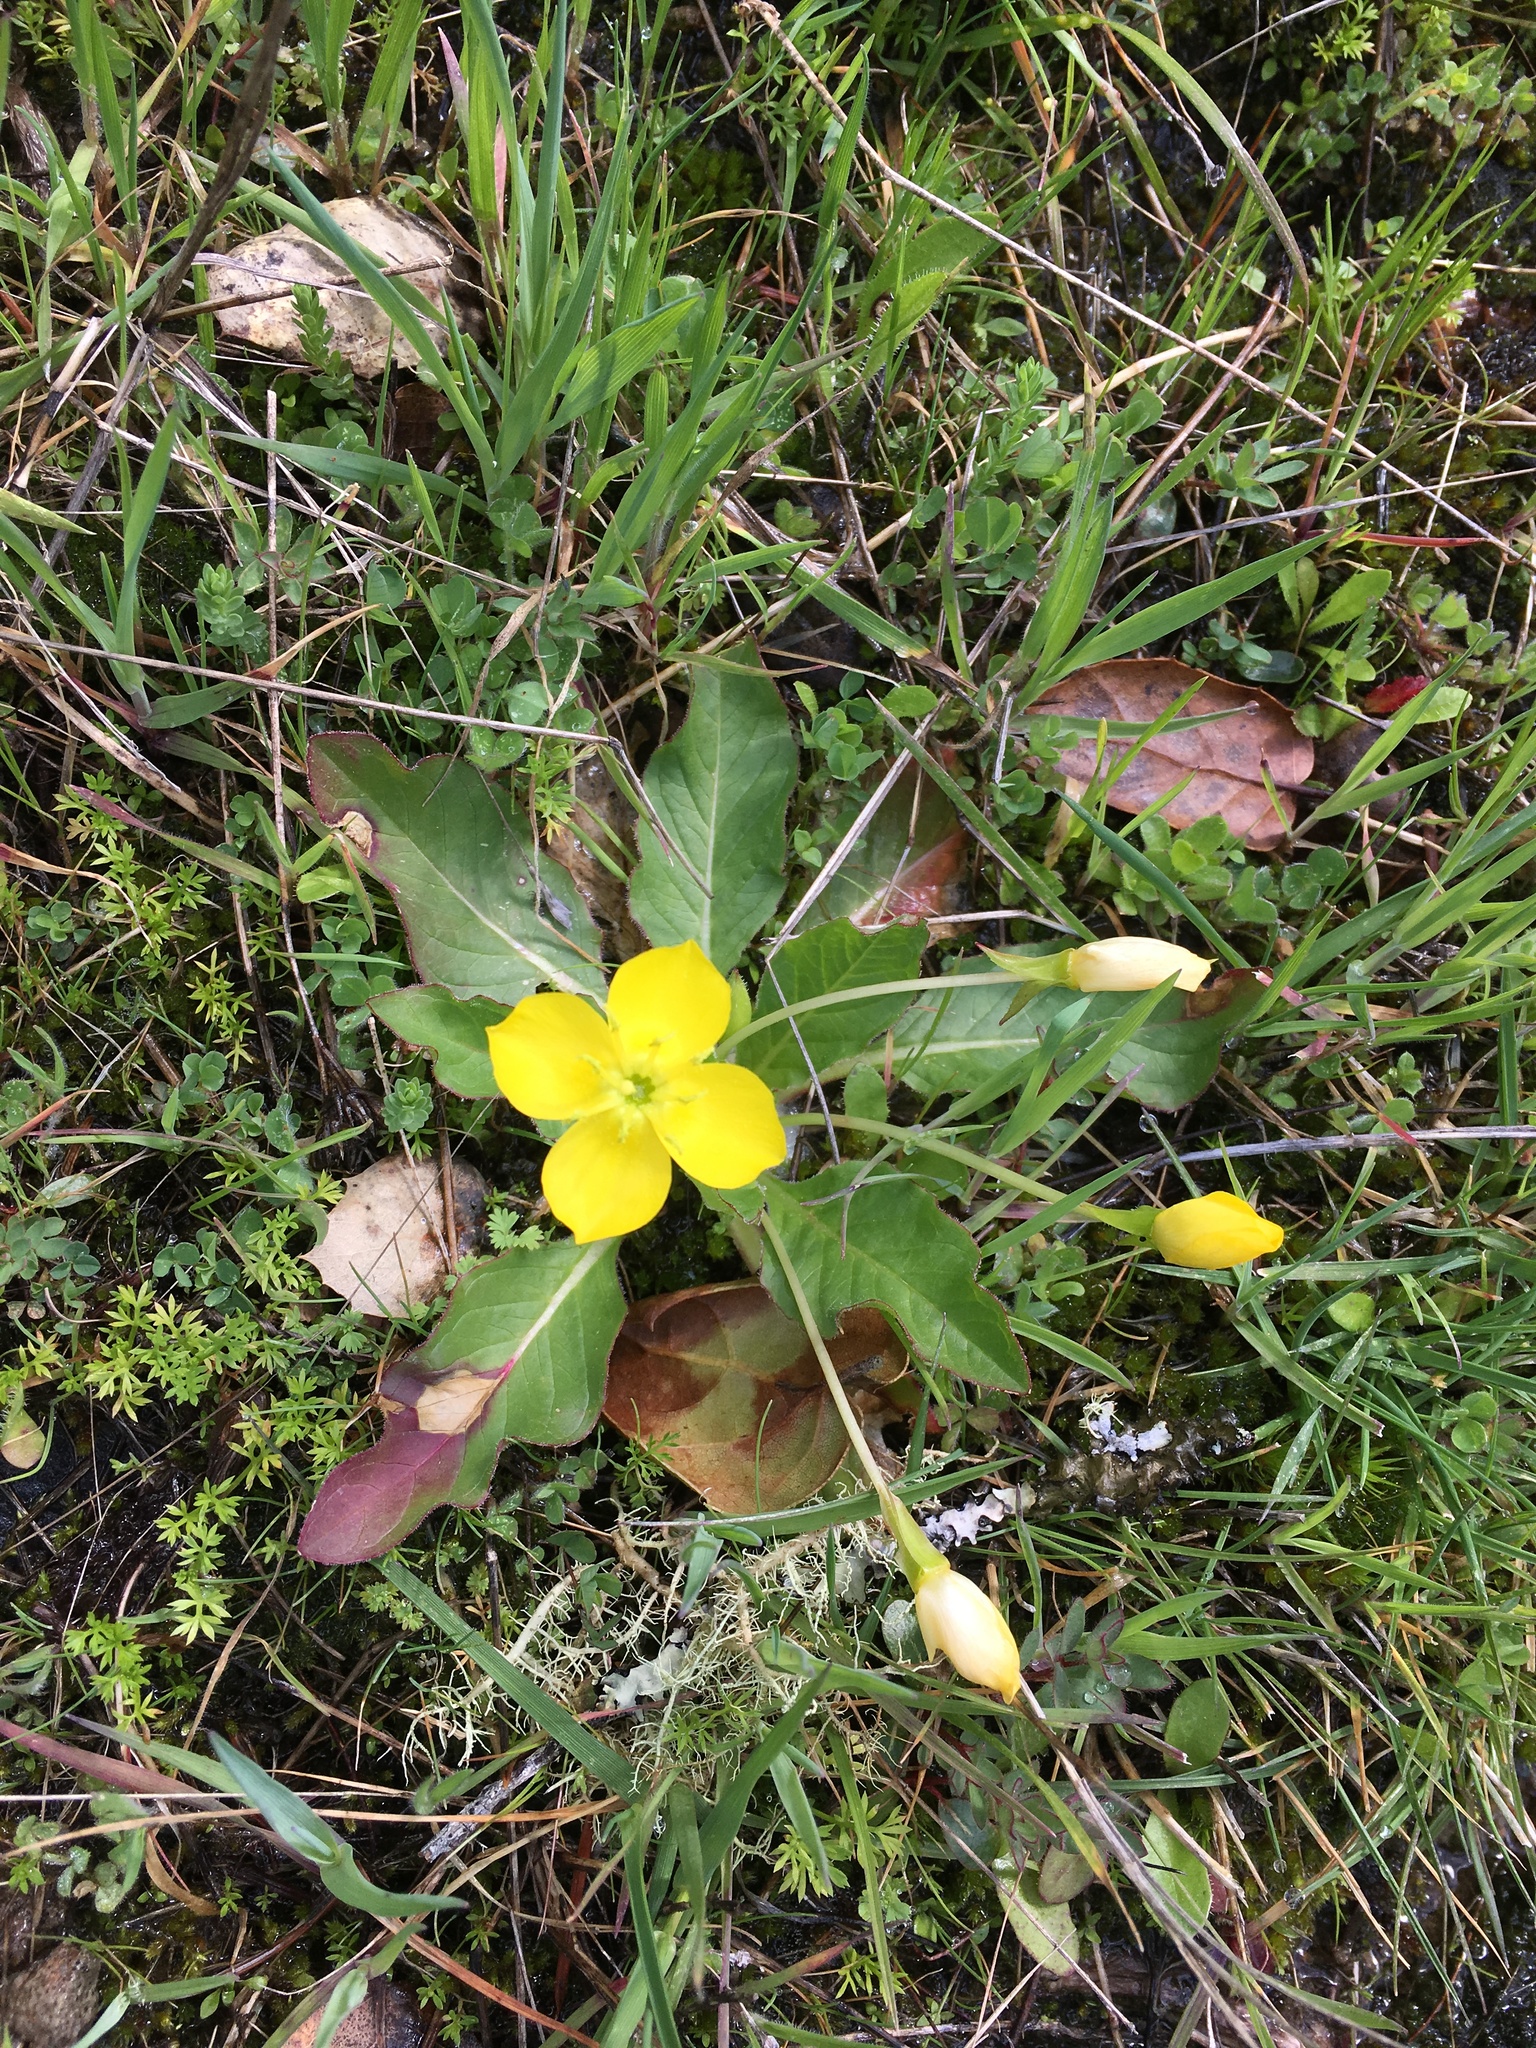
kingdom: Plantae
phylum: Tracheophyta
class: Magnoliopsida
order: Myrtales
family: Onagraceae
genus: Taraxia
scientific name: Taraxia ovata
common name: Goldeneggs
